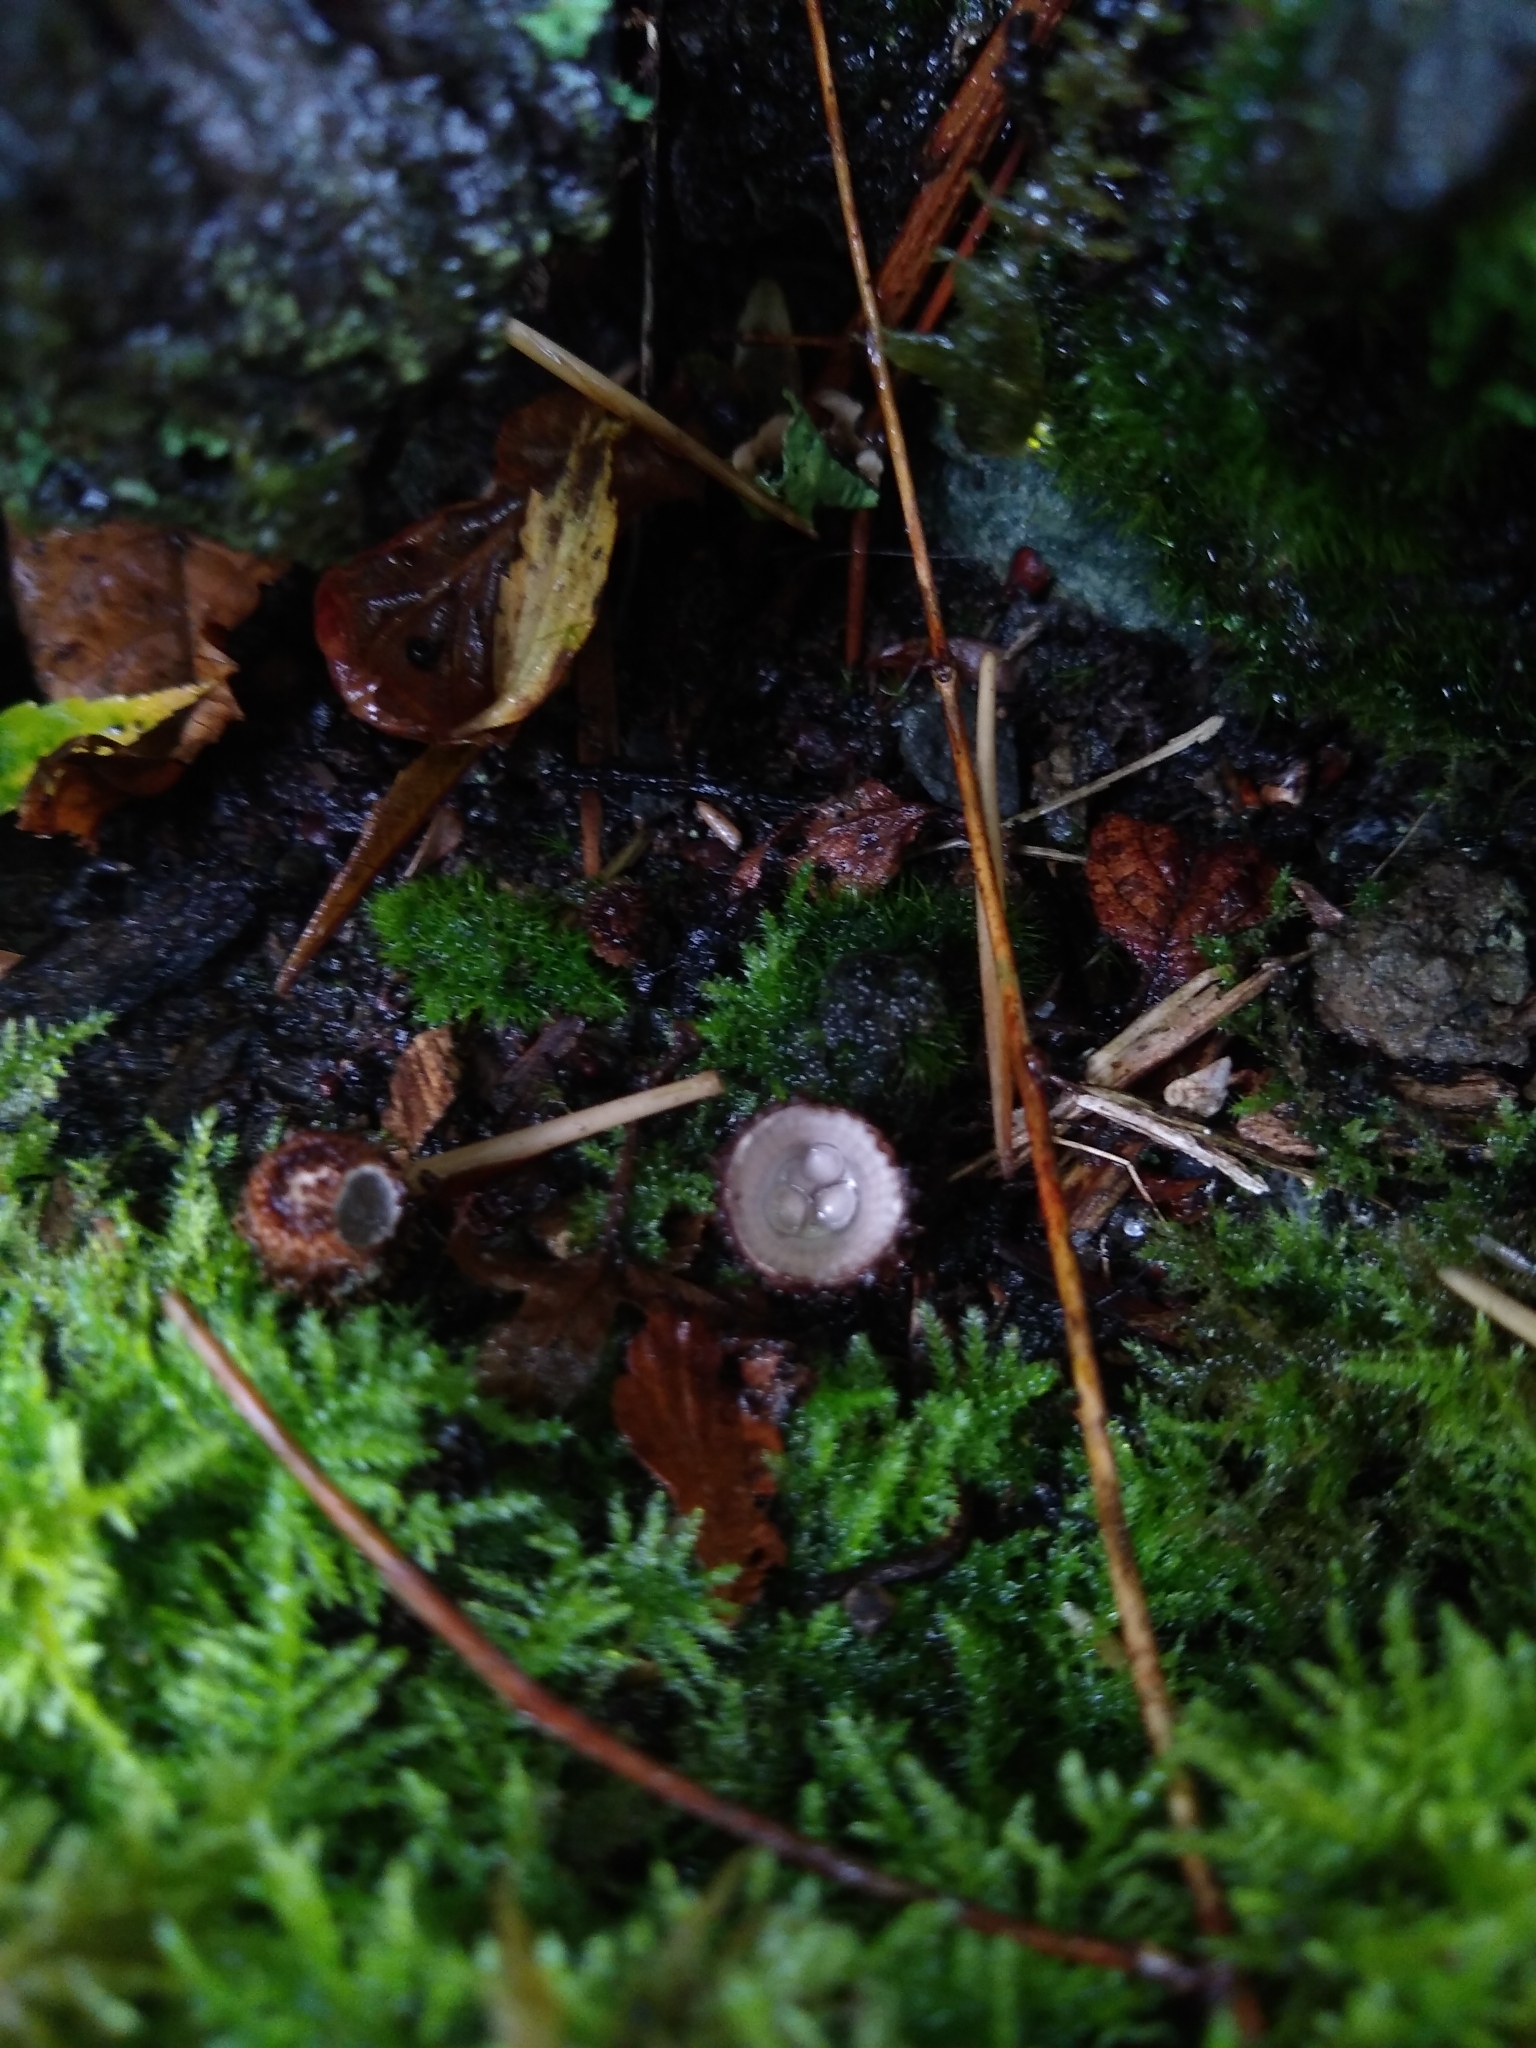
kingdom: Fungi
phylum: Basidiomycota
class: Agaricomycetes
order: Agaricales
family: Agaricaceae
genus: Cyathus
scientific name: Cyathus striatus
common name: Fluted bird's nest
